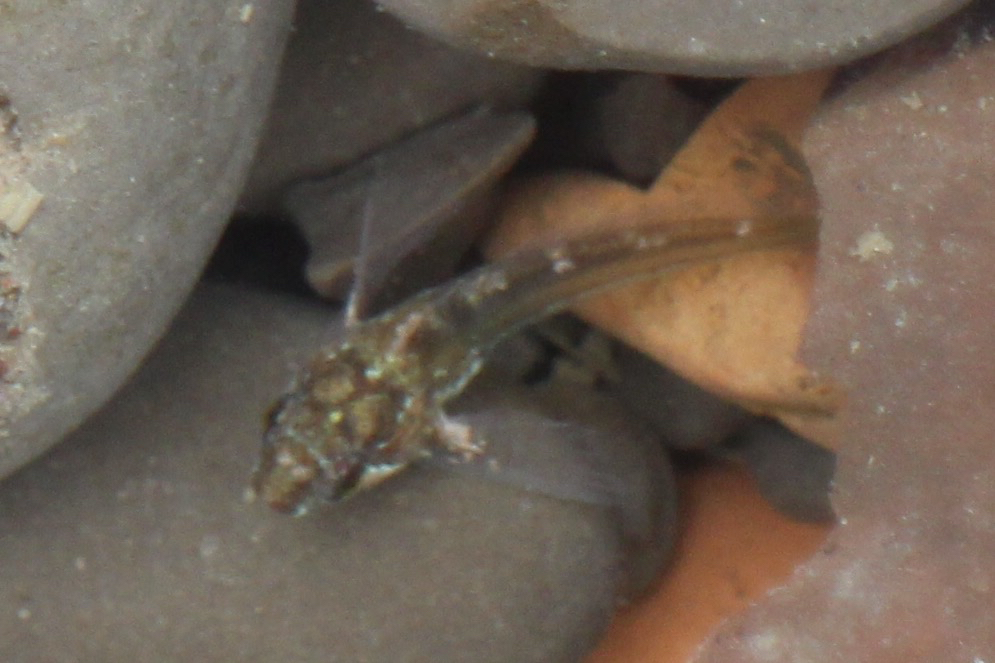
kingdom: Animalia
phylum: Chordata
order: Scorpaeniformes
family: Cottidae
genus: Oligocottus
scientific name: Oligocottus maculosus
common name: Tidepool sculpin
